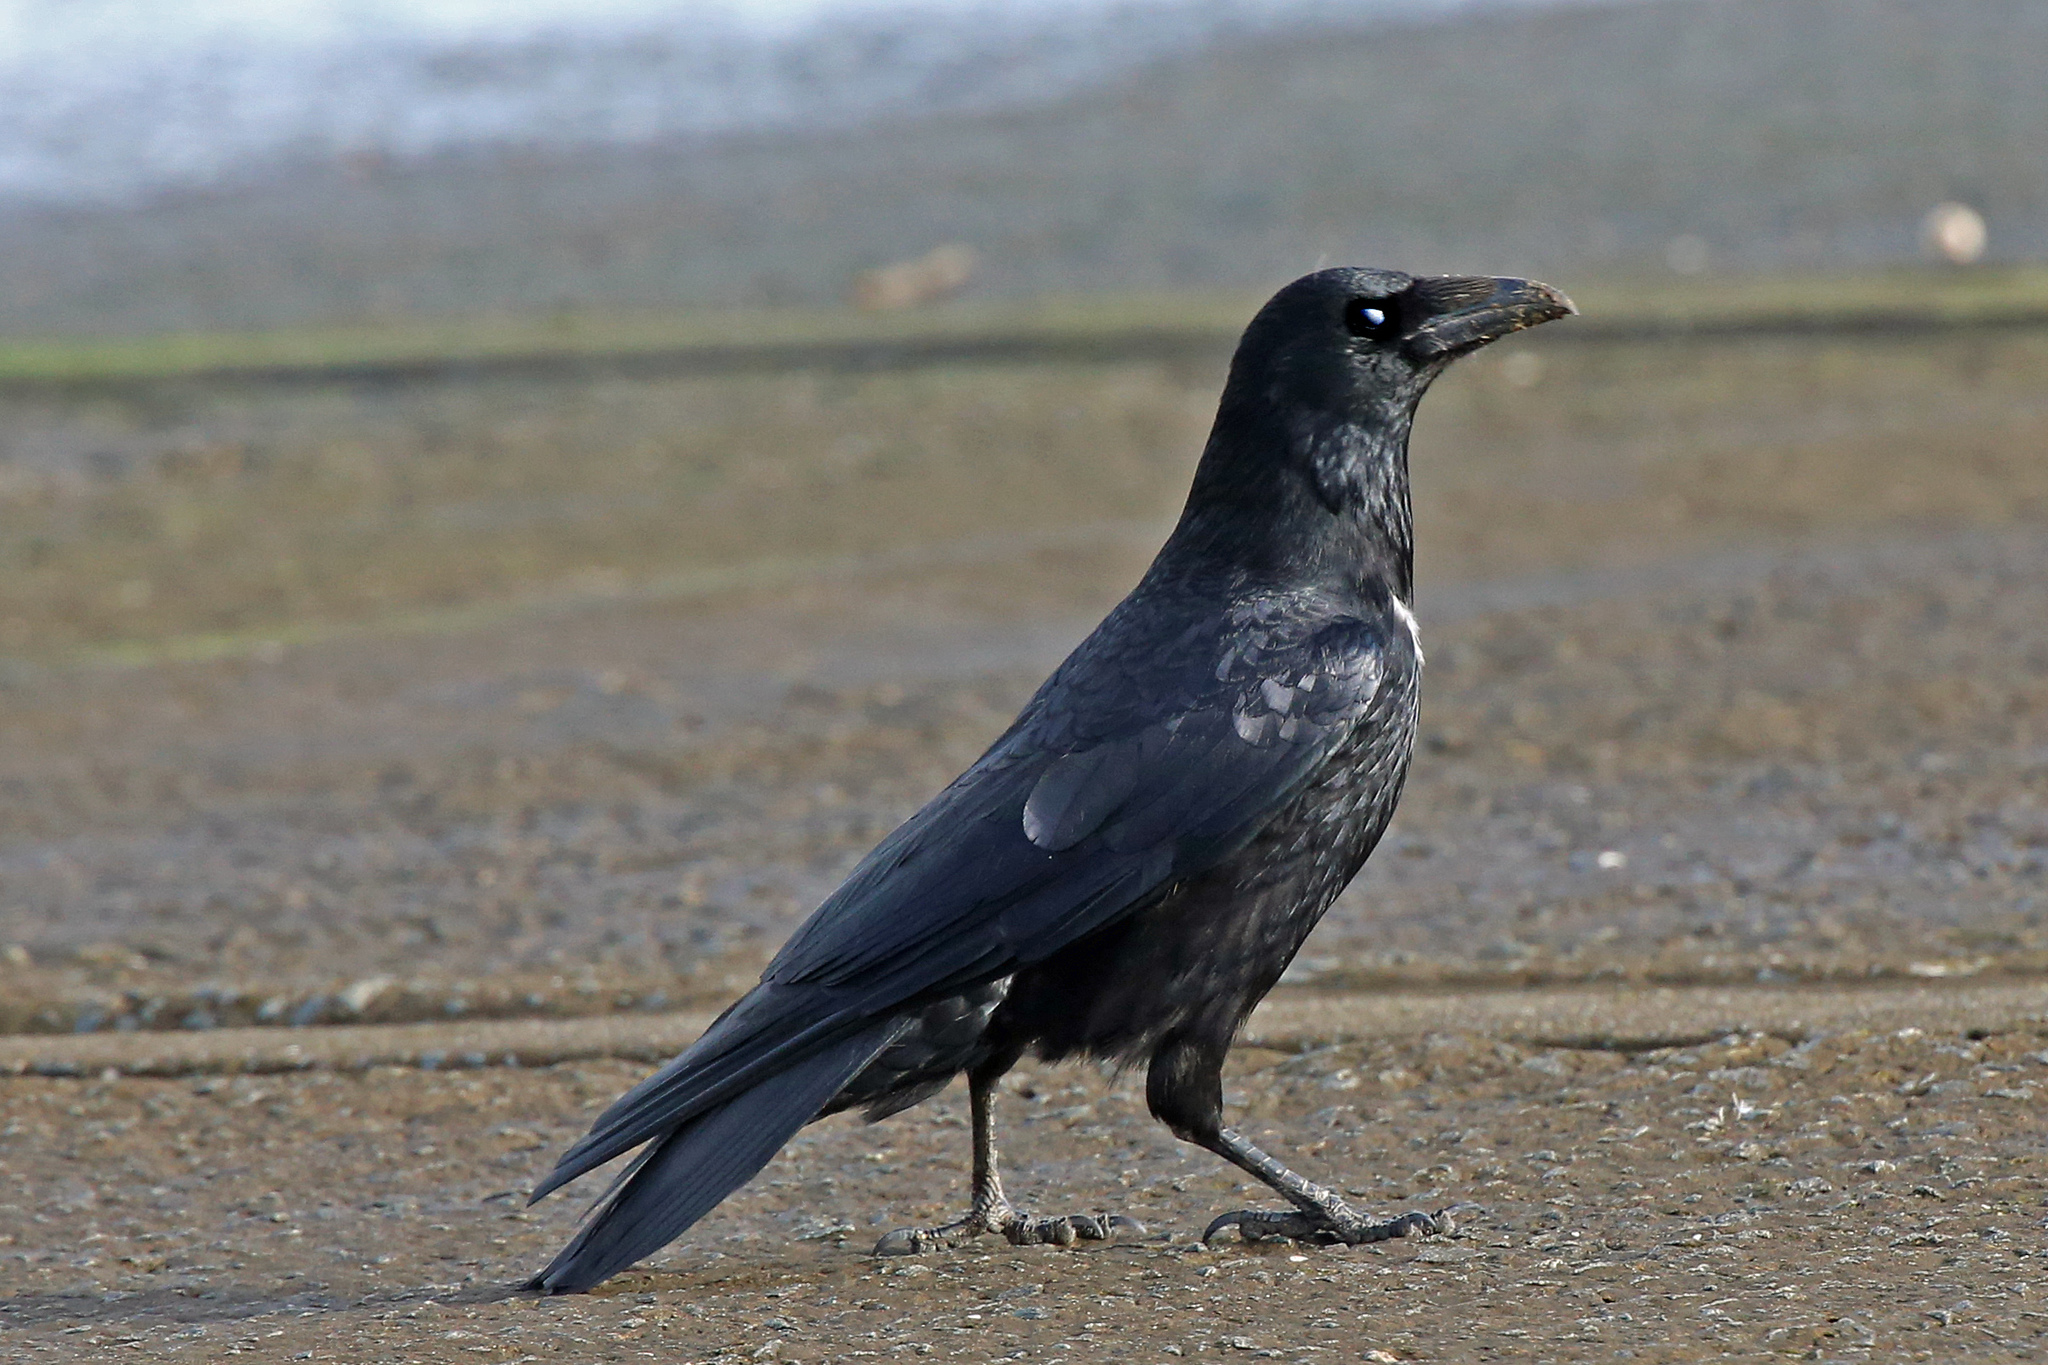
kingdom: Animalia
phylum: Chordata
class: Aves
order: Passeriformes
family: Corvidae
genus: Corvus
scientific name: Corvus corax
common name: Common raven
